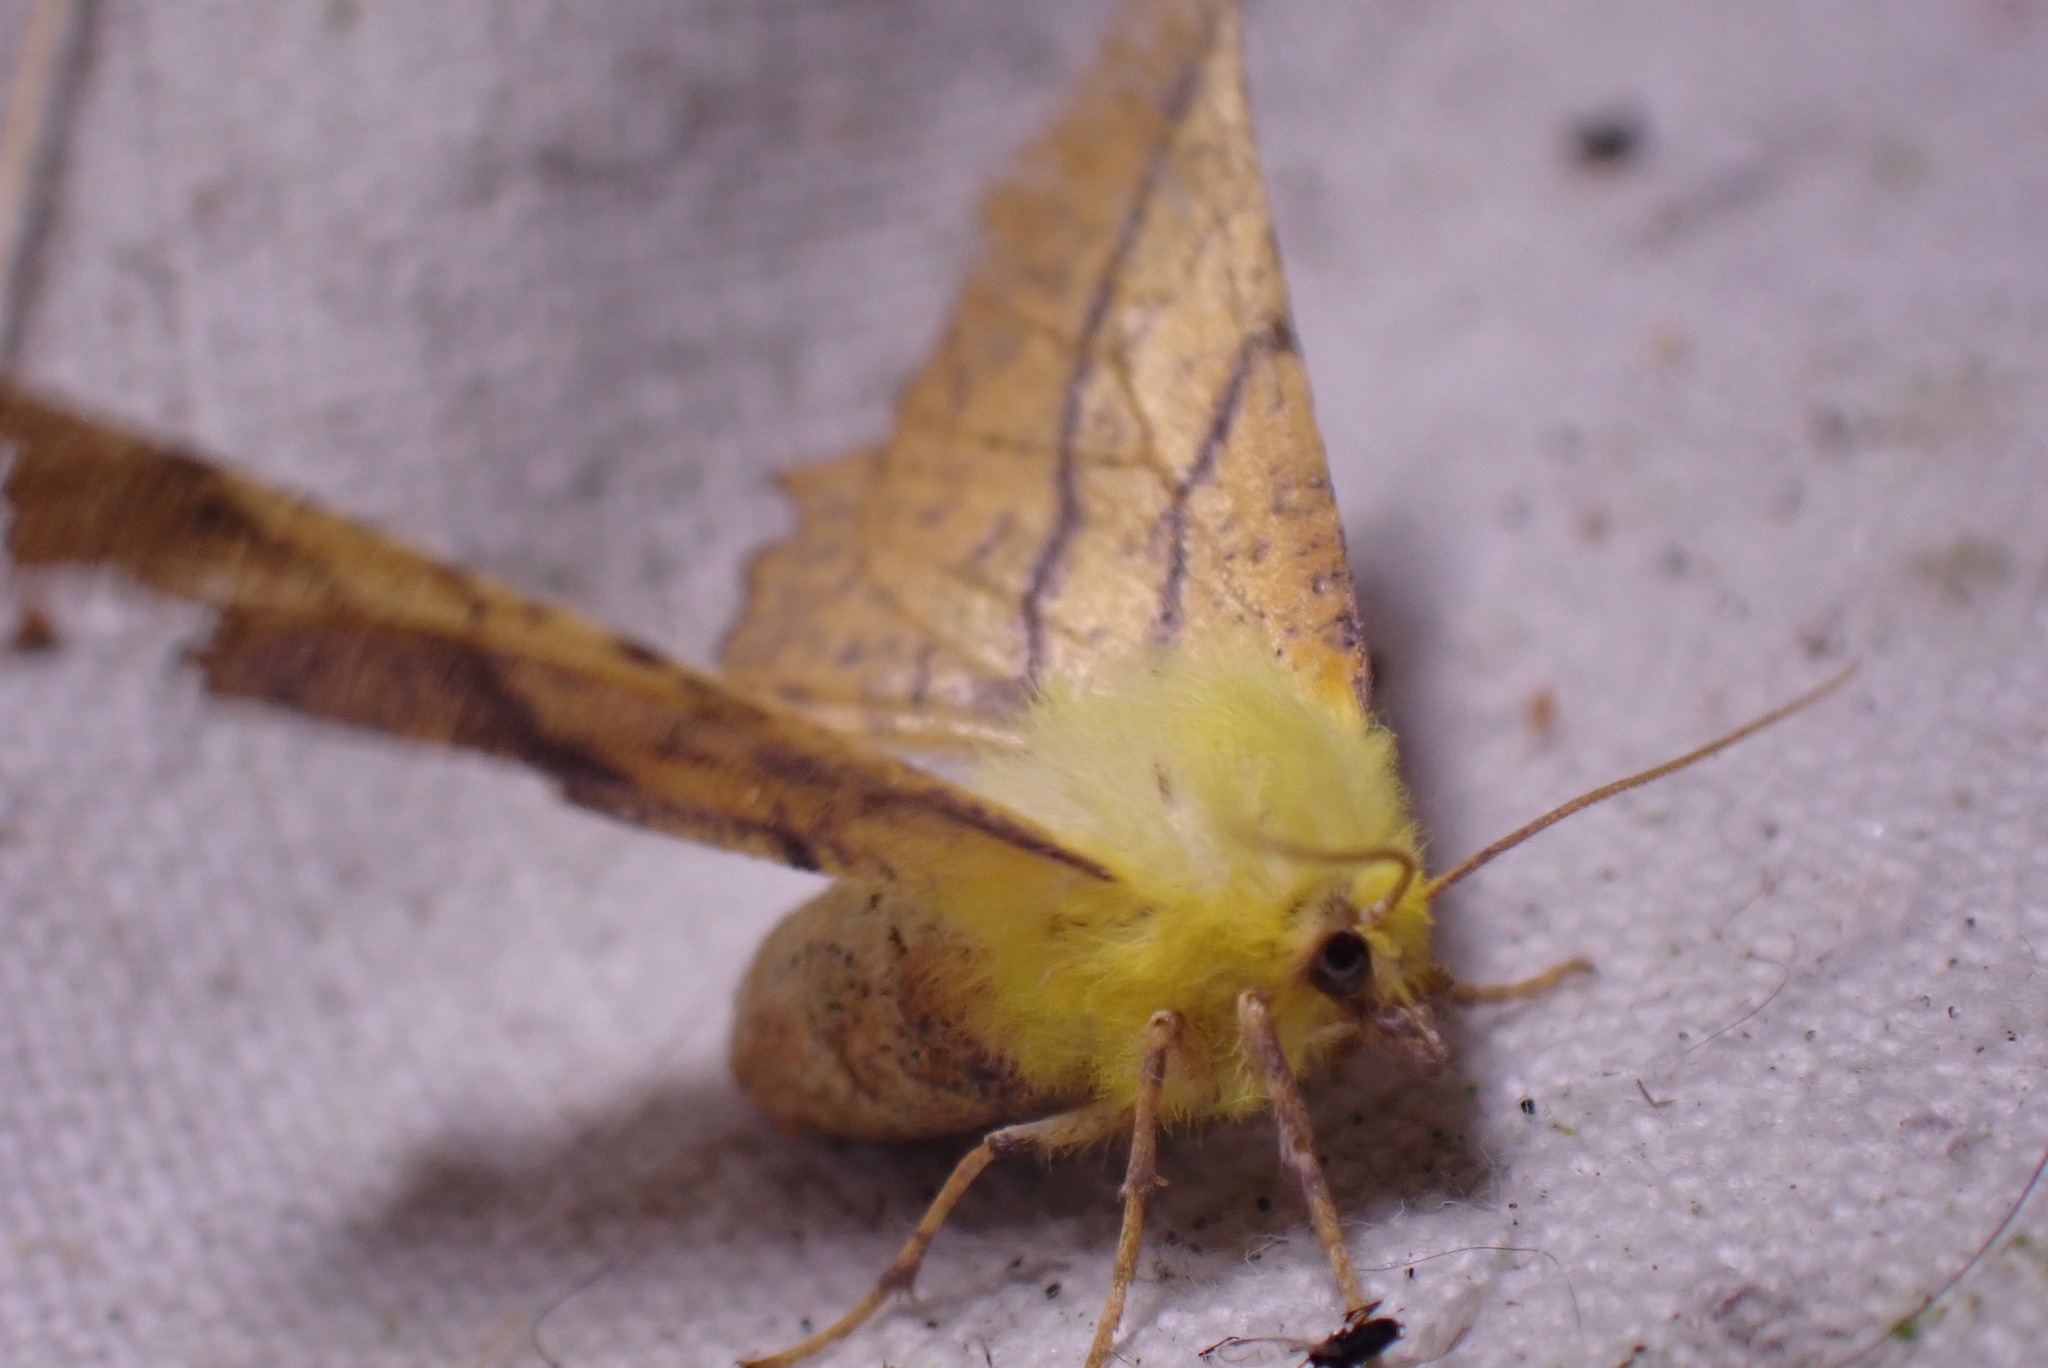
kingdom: Animalia
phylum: Arthropoda
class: Insecta
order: Lepidoptera
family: Geometridae
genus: Ennomos
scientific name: Ennomos alniaria
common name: Canary-shouldered thorn
